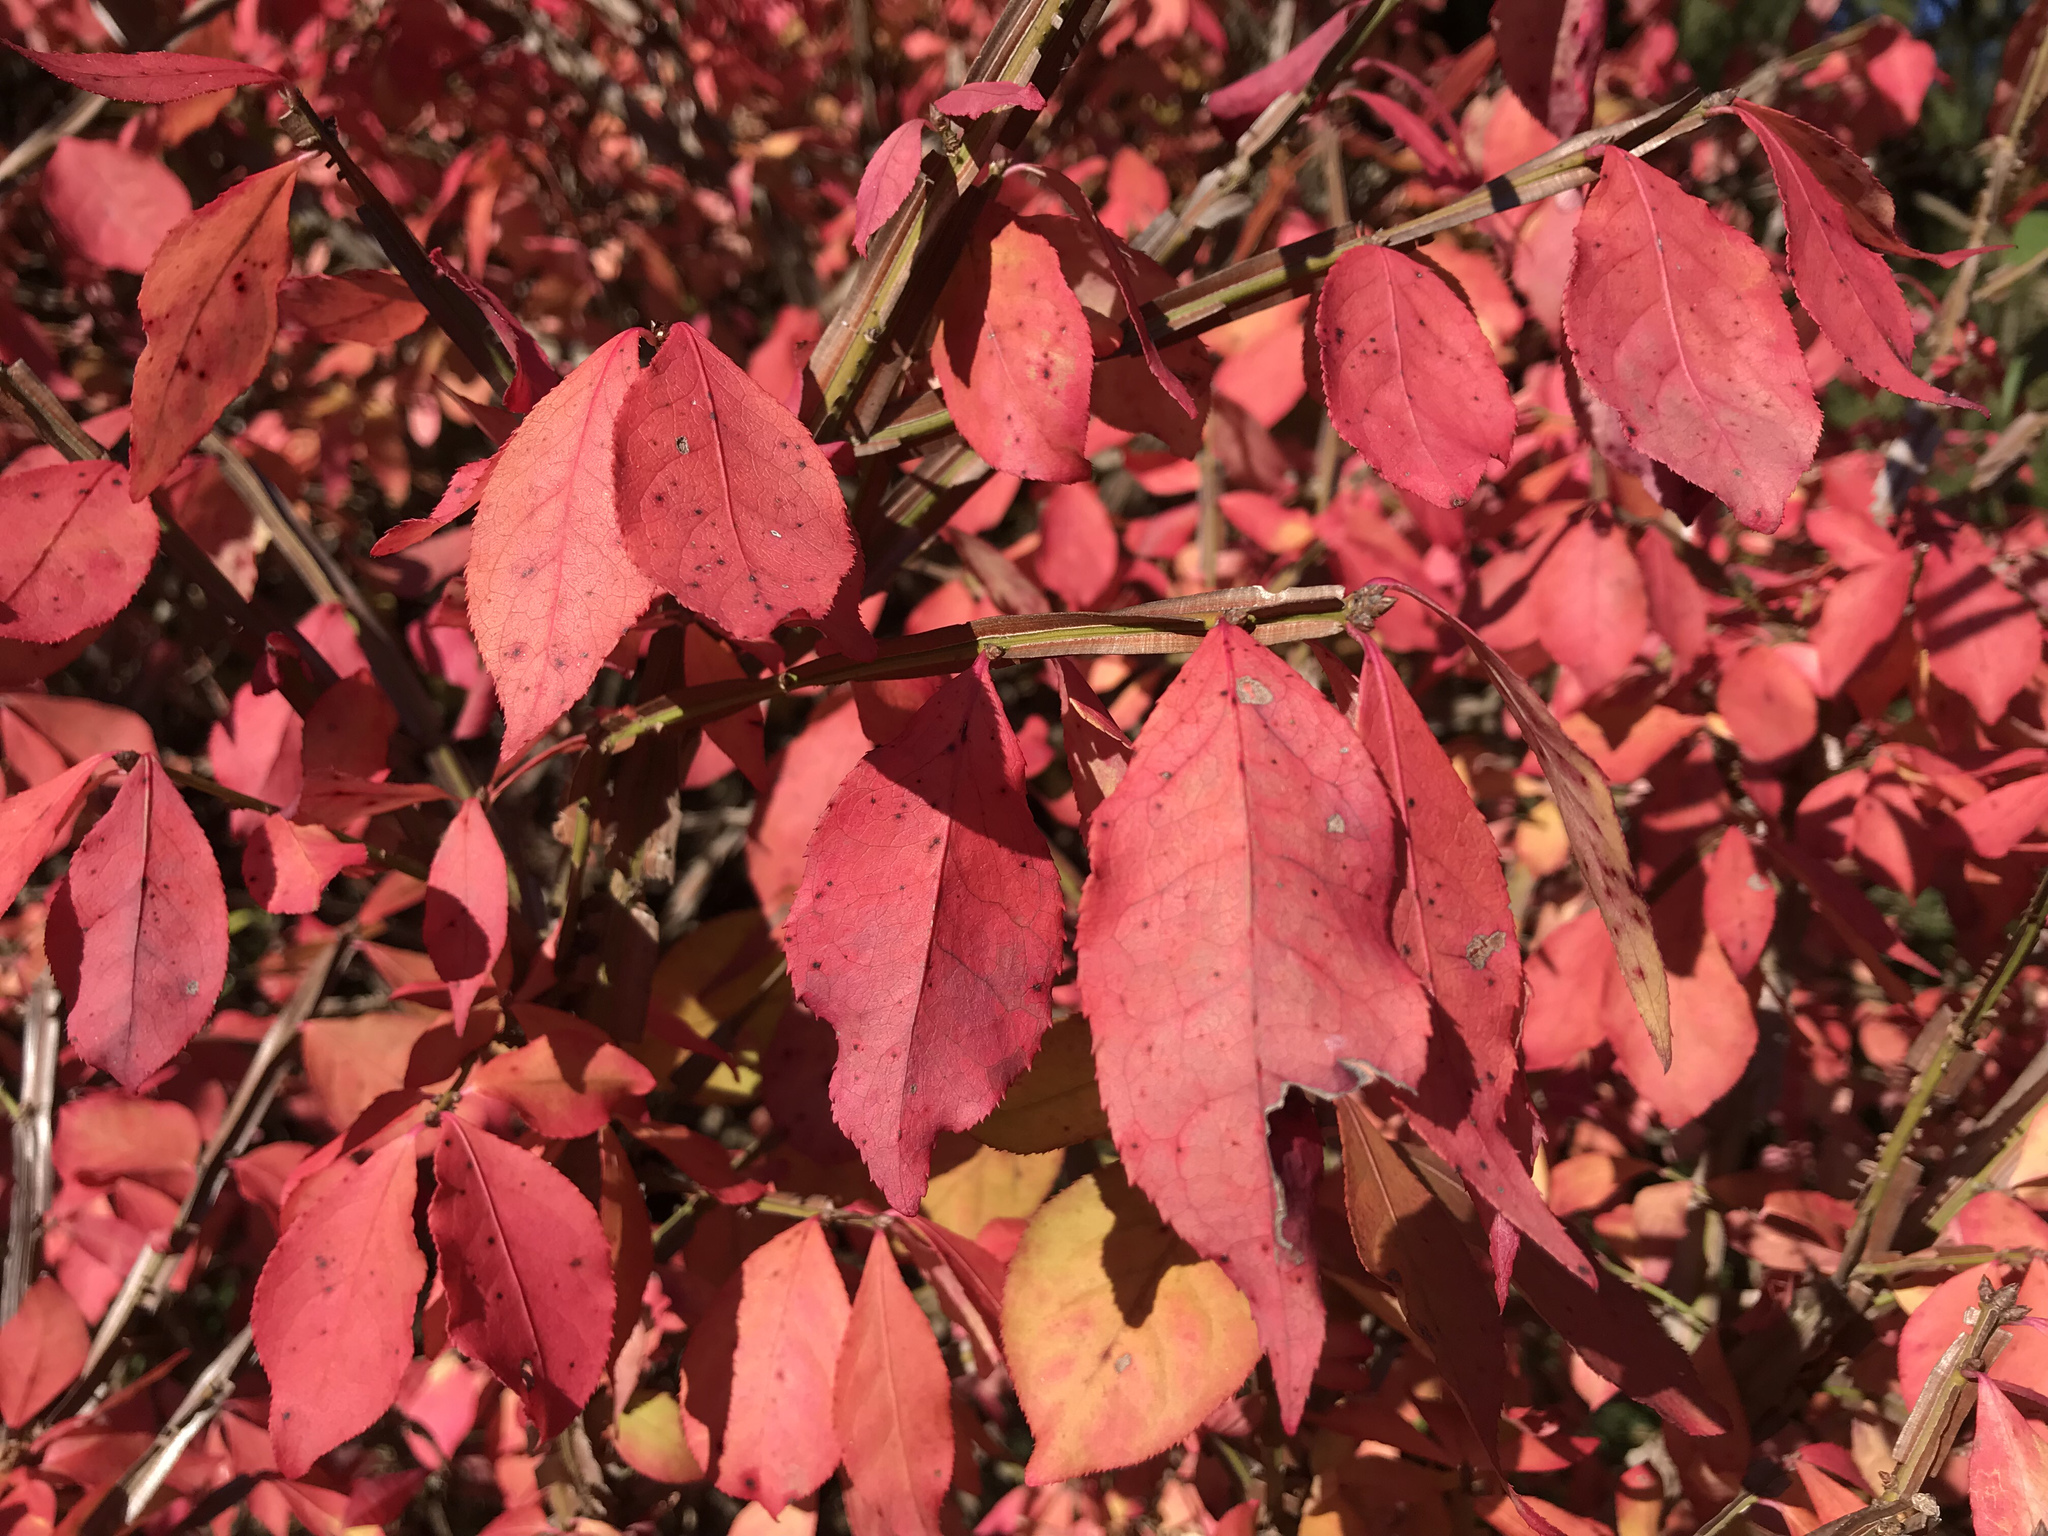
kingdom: Plantae
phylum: Tracheophyta
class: Magnoliopsida
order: Celastrales
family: Celastraceae
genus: Euonymus
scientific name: Euonymus alatus
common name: Winged euonymus
